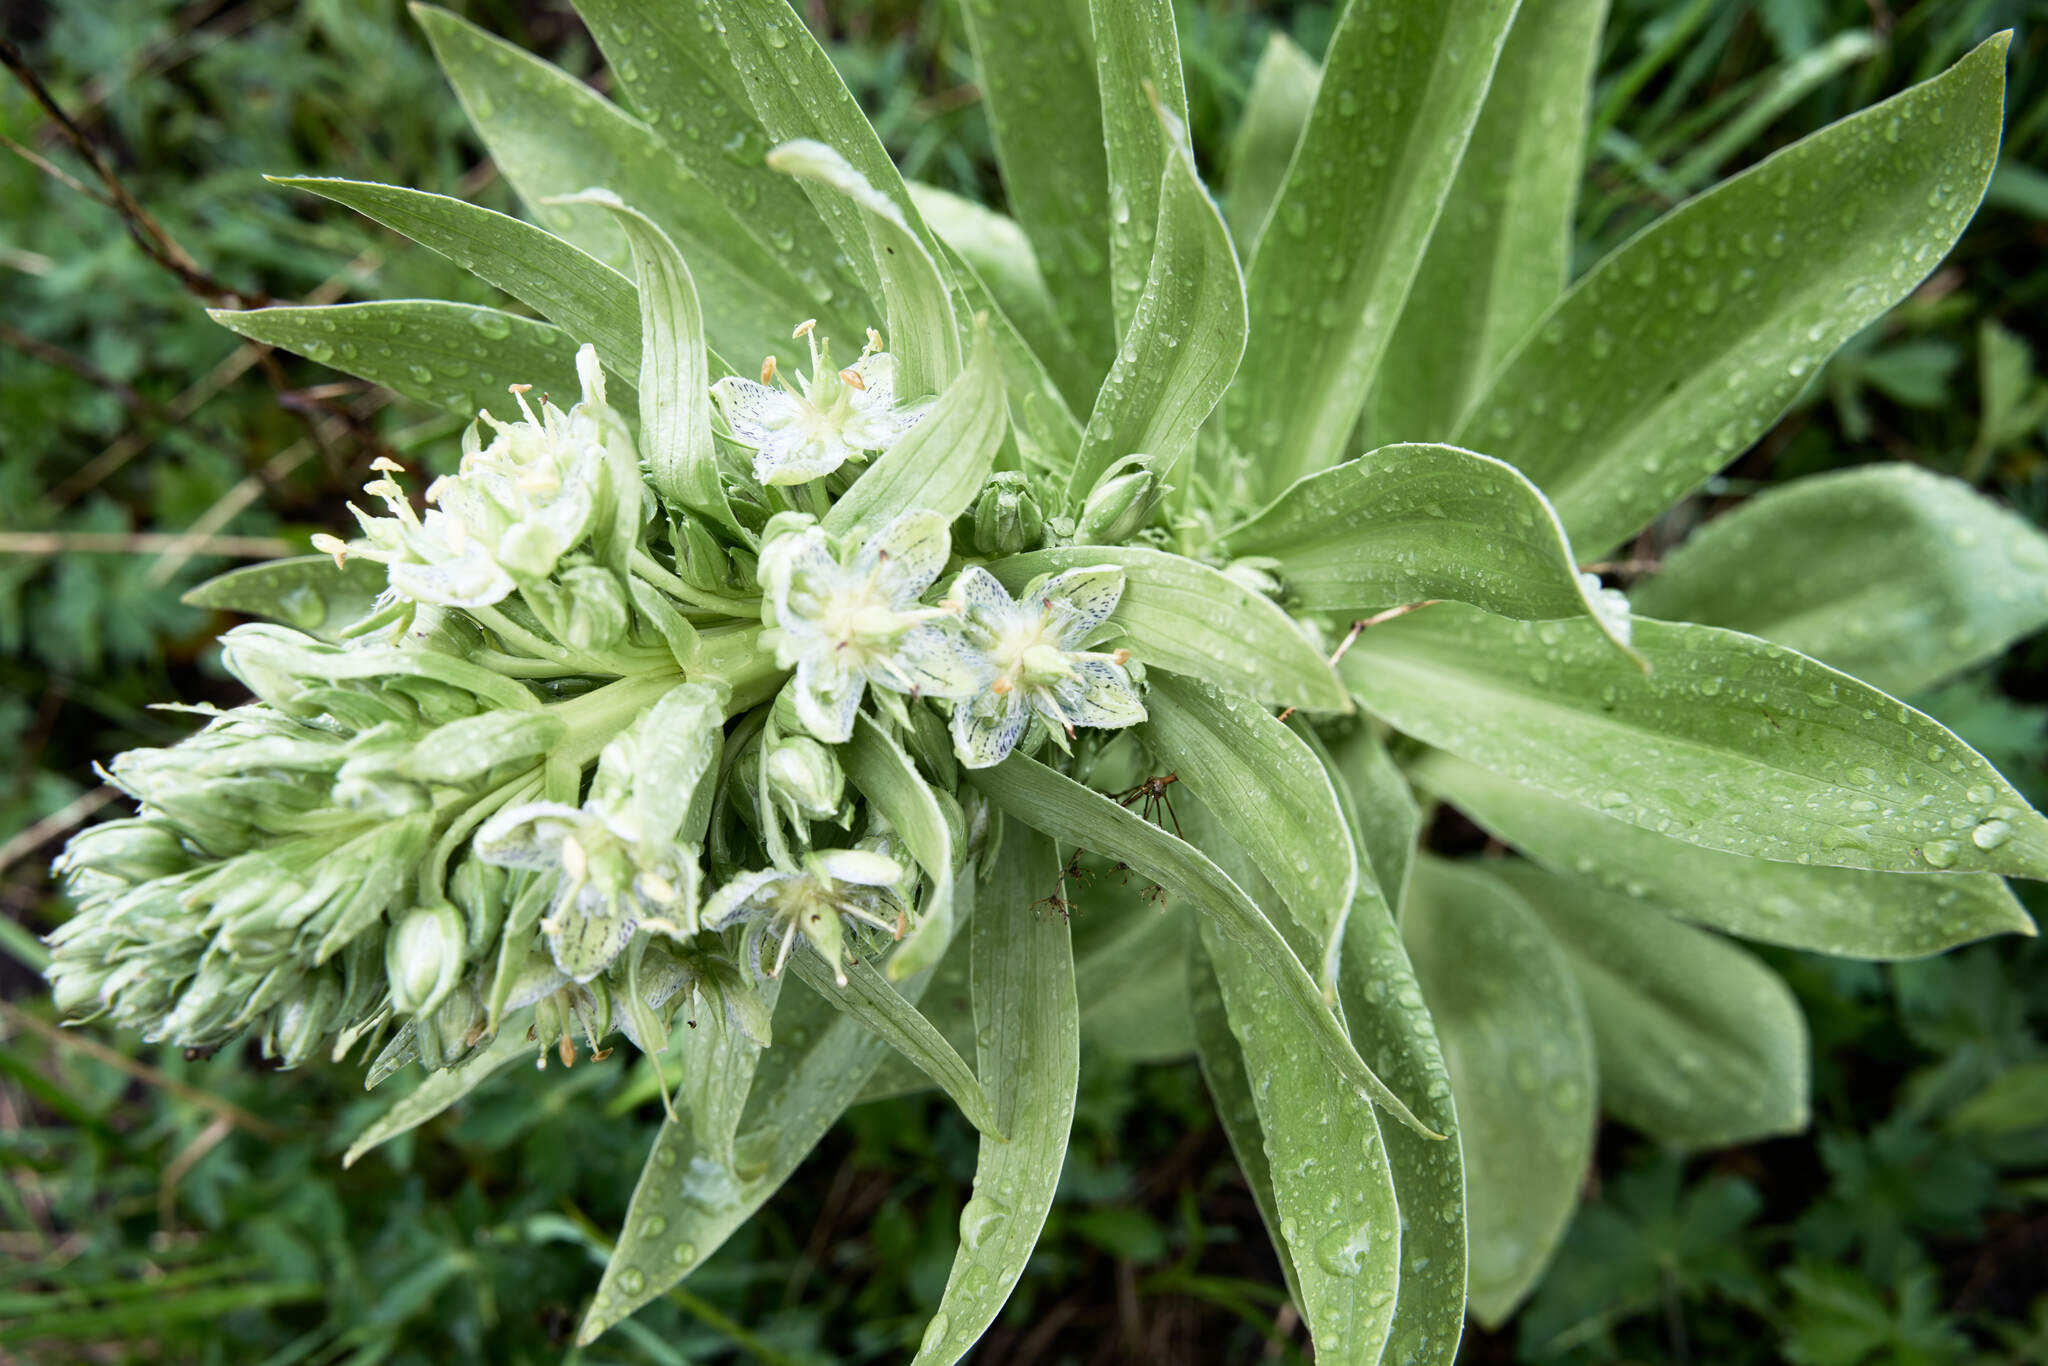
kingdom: Plantae
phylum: Tracheophyta
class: Magnoliopsida
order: Gentianales
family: Gentianaceae
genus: Frasera
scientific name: Frasera speciosa
